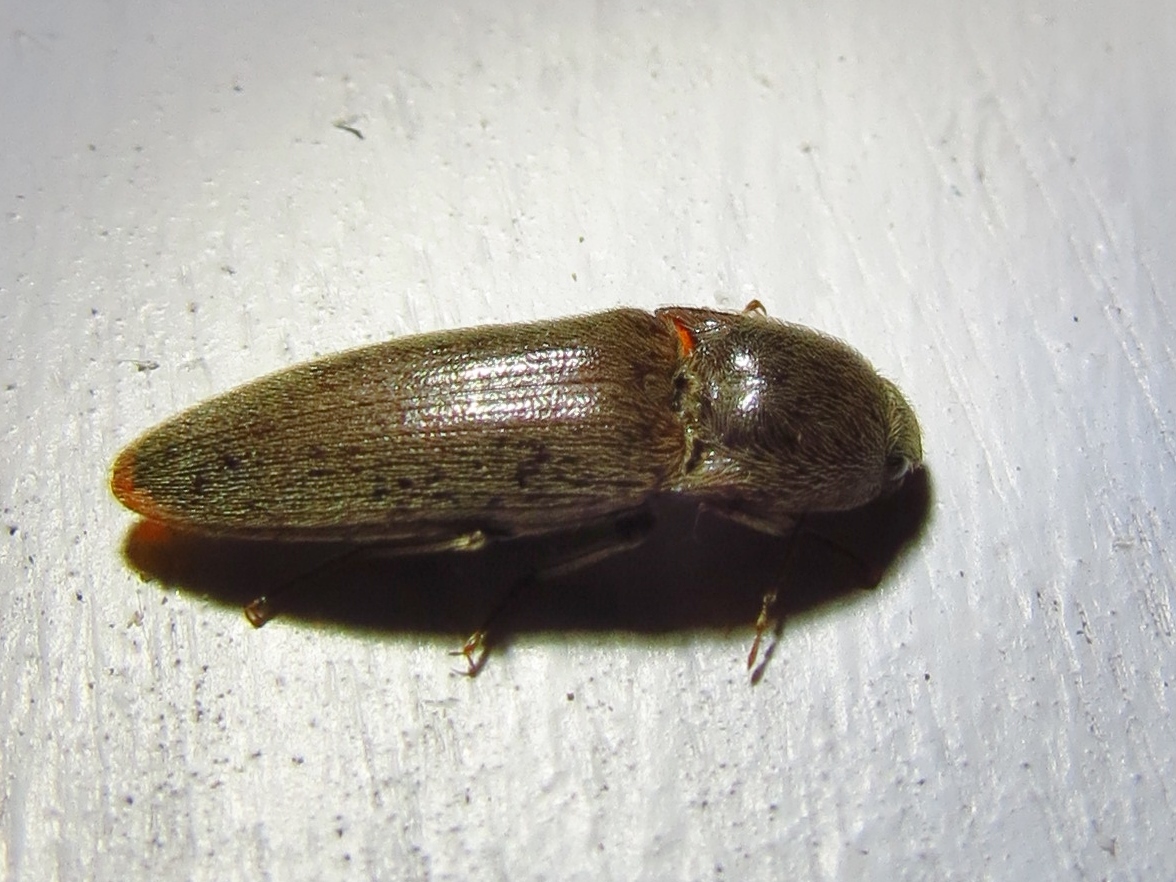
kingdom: Animalia
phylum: Arthropoda
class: Insecta
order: Coleoptera
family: Elateridae
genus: Melanotus
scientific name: Melanotus
